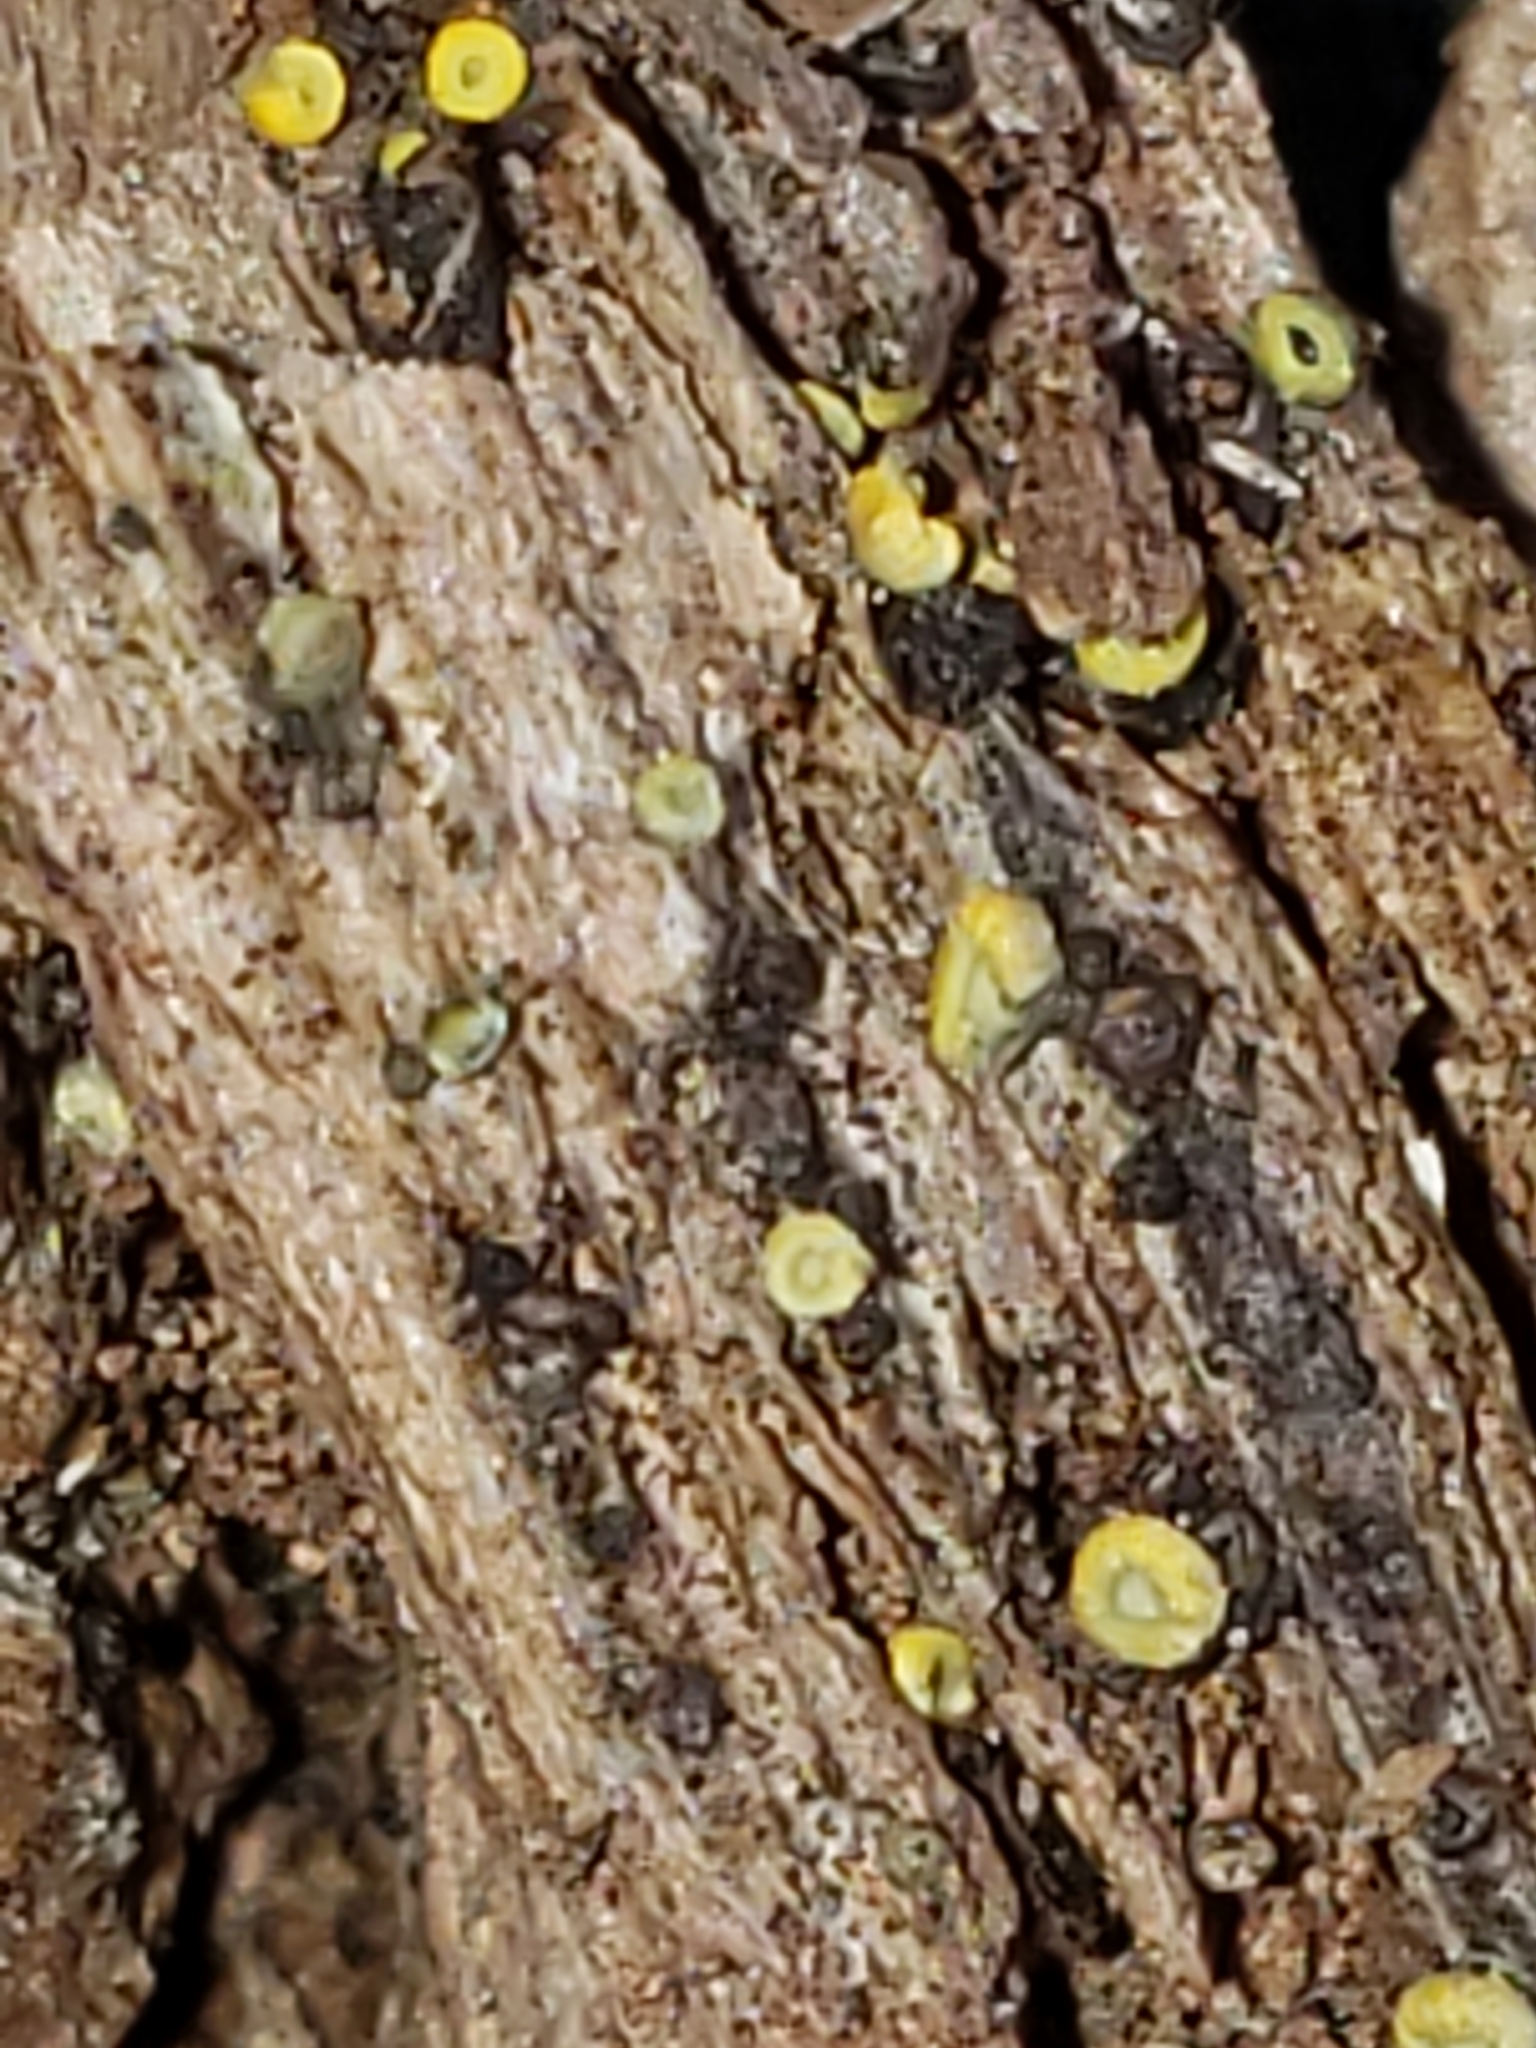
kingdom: Fungi
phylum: Ascomycota
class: Leotiomycetes
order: Helotiales
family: Chlorospleniaceae
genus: Chlorosplenium
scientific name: Chlorosplenium chlora
